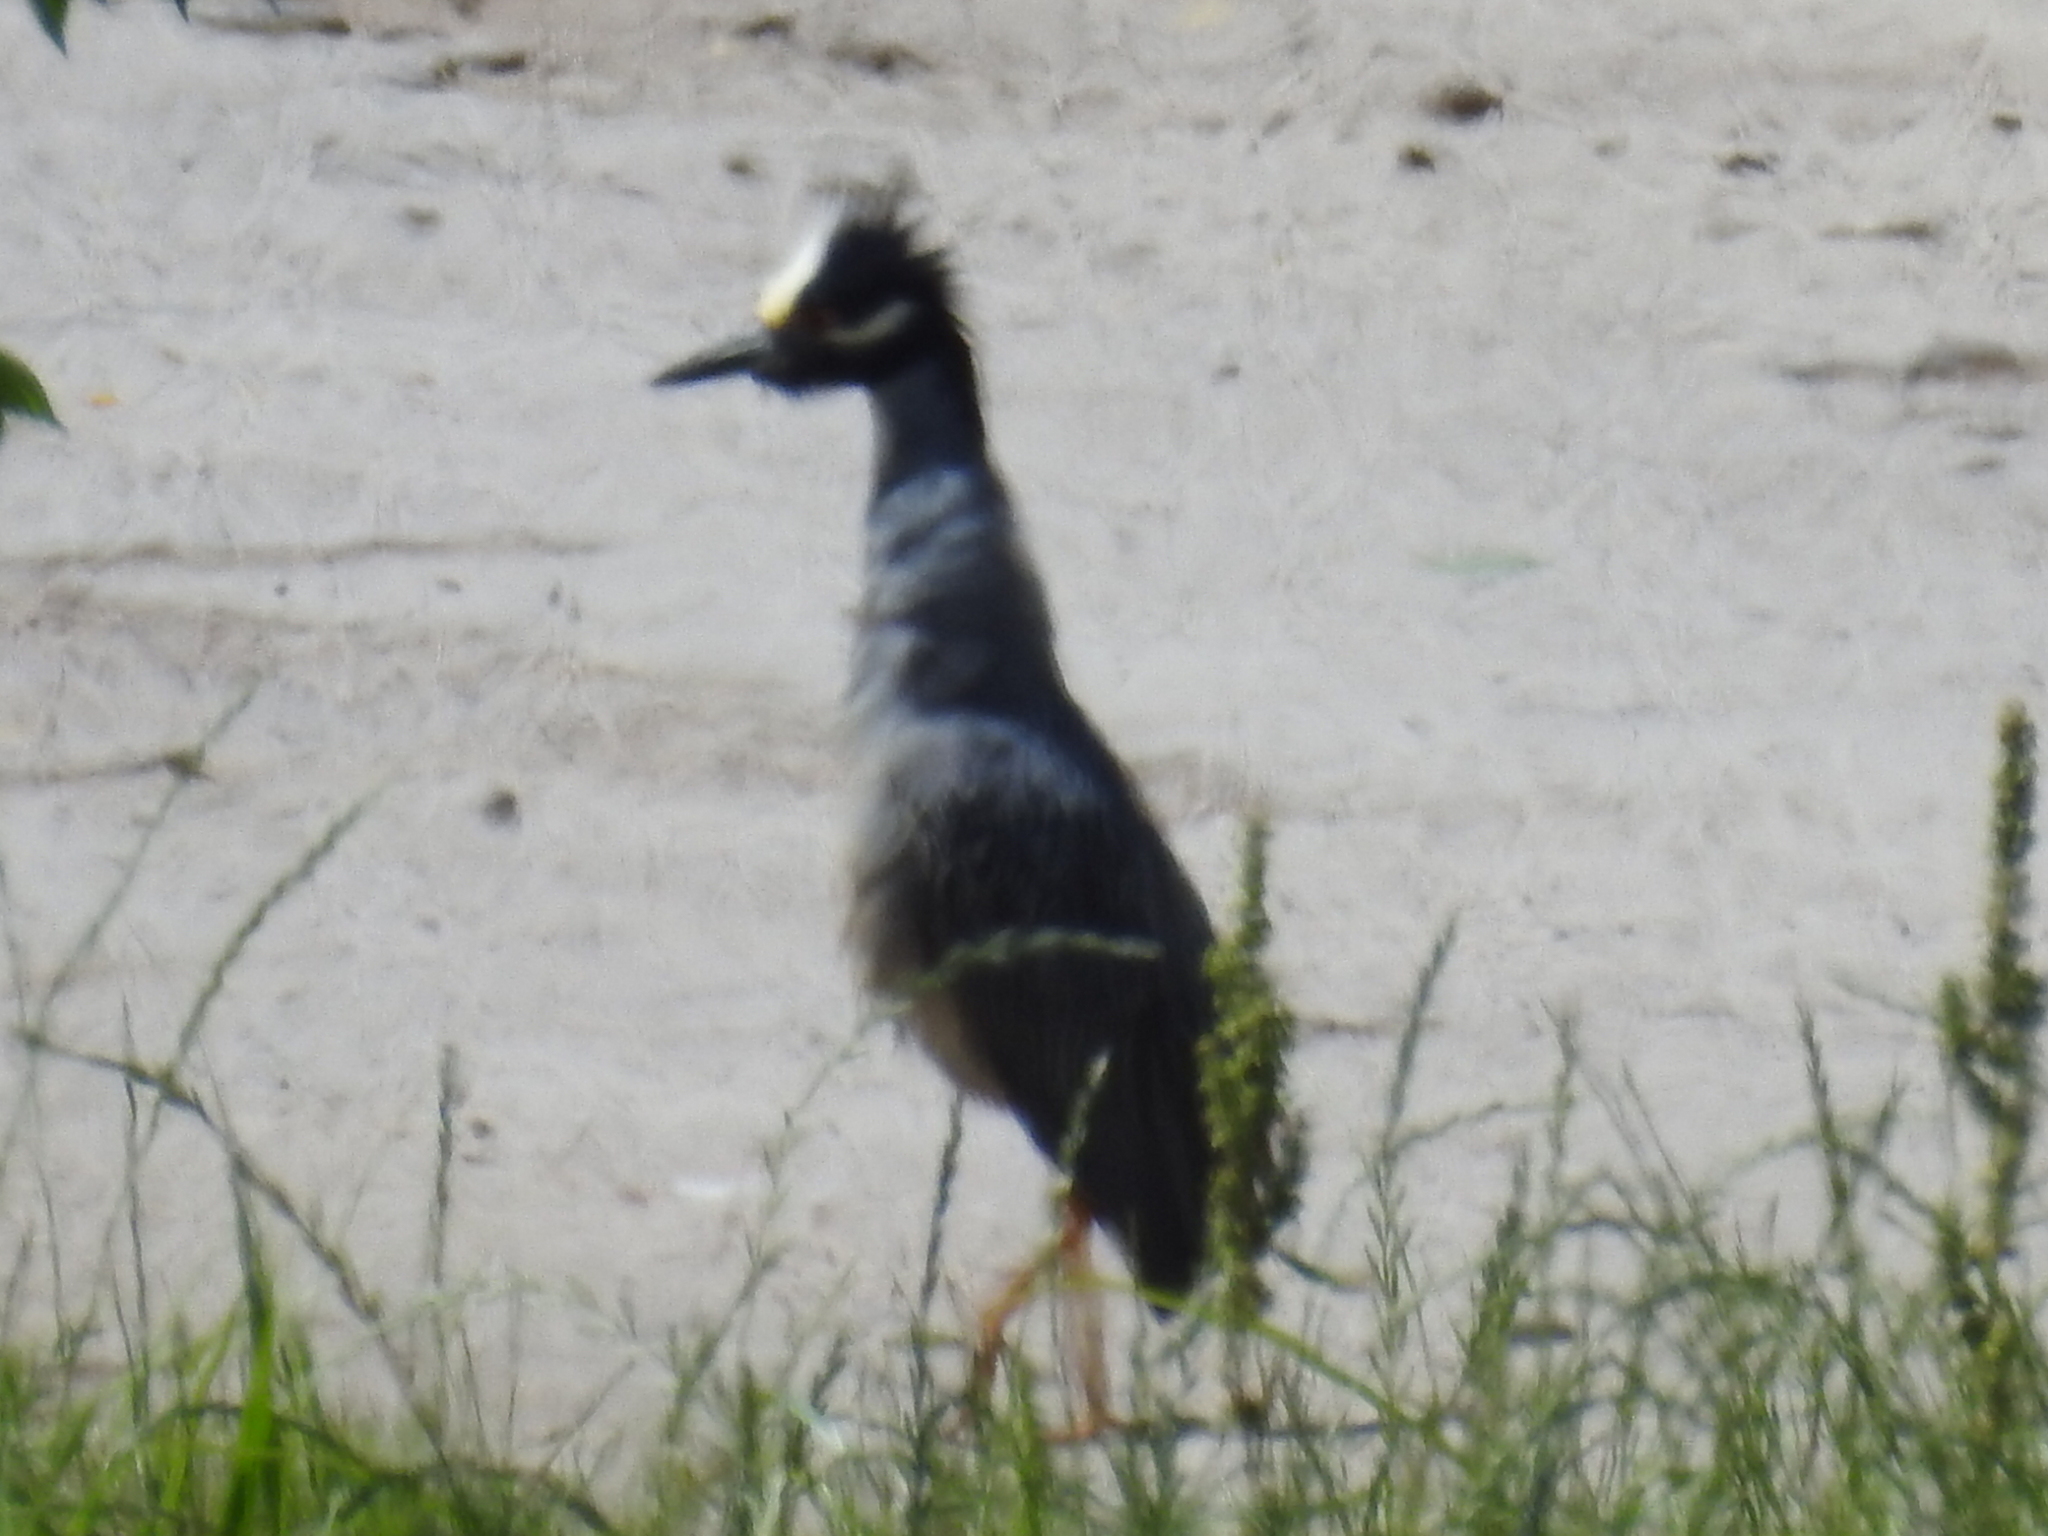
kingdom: Animalia
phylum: Chordata
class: Aves
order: Pelecaniformes
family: Ardeidae
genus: Nyctanassa
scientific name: Nyctanassa violacea
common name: Yellow-crowned night heron
